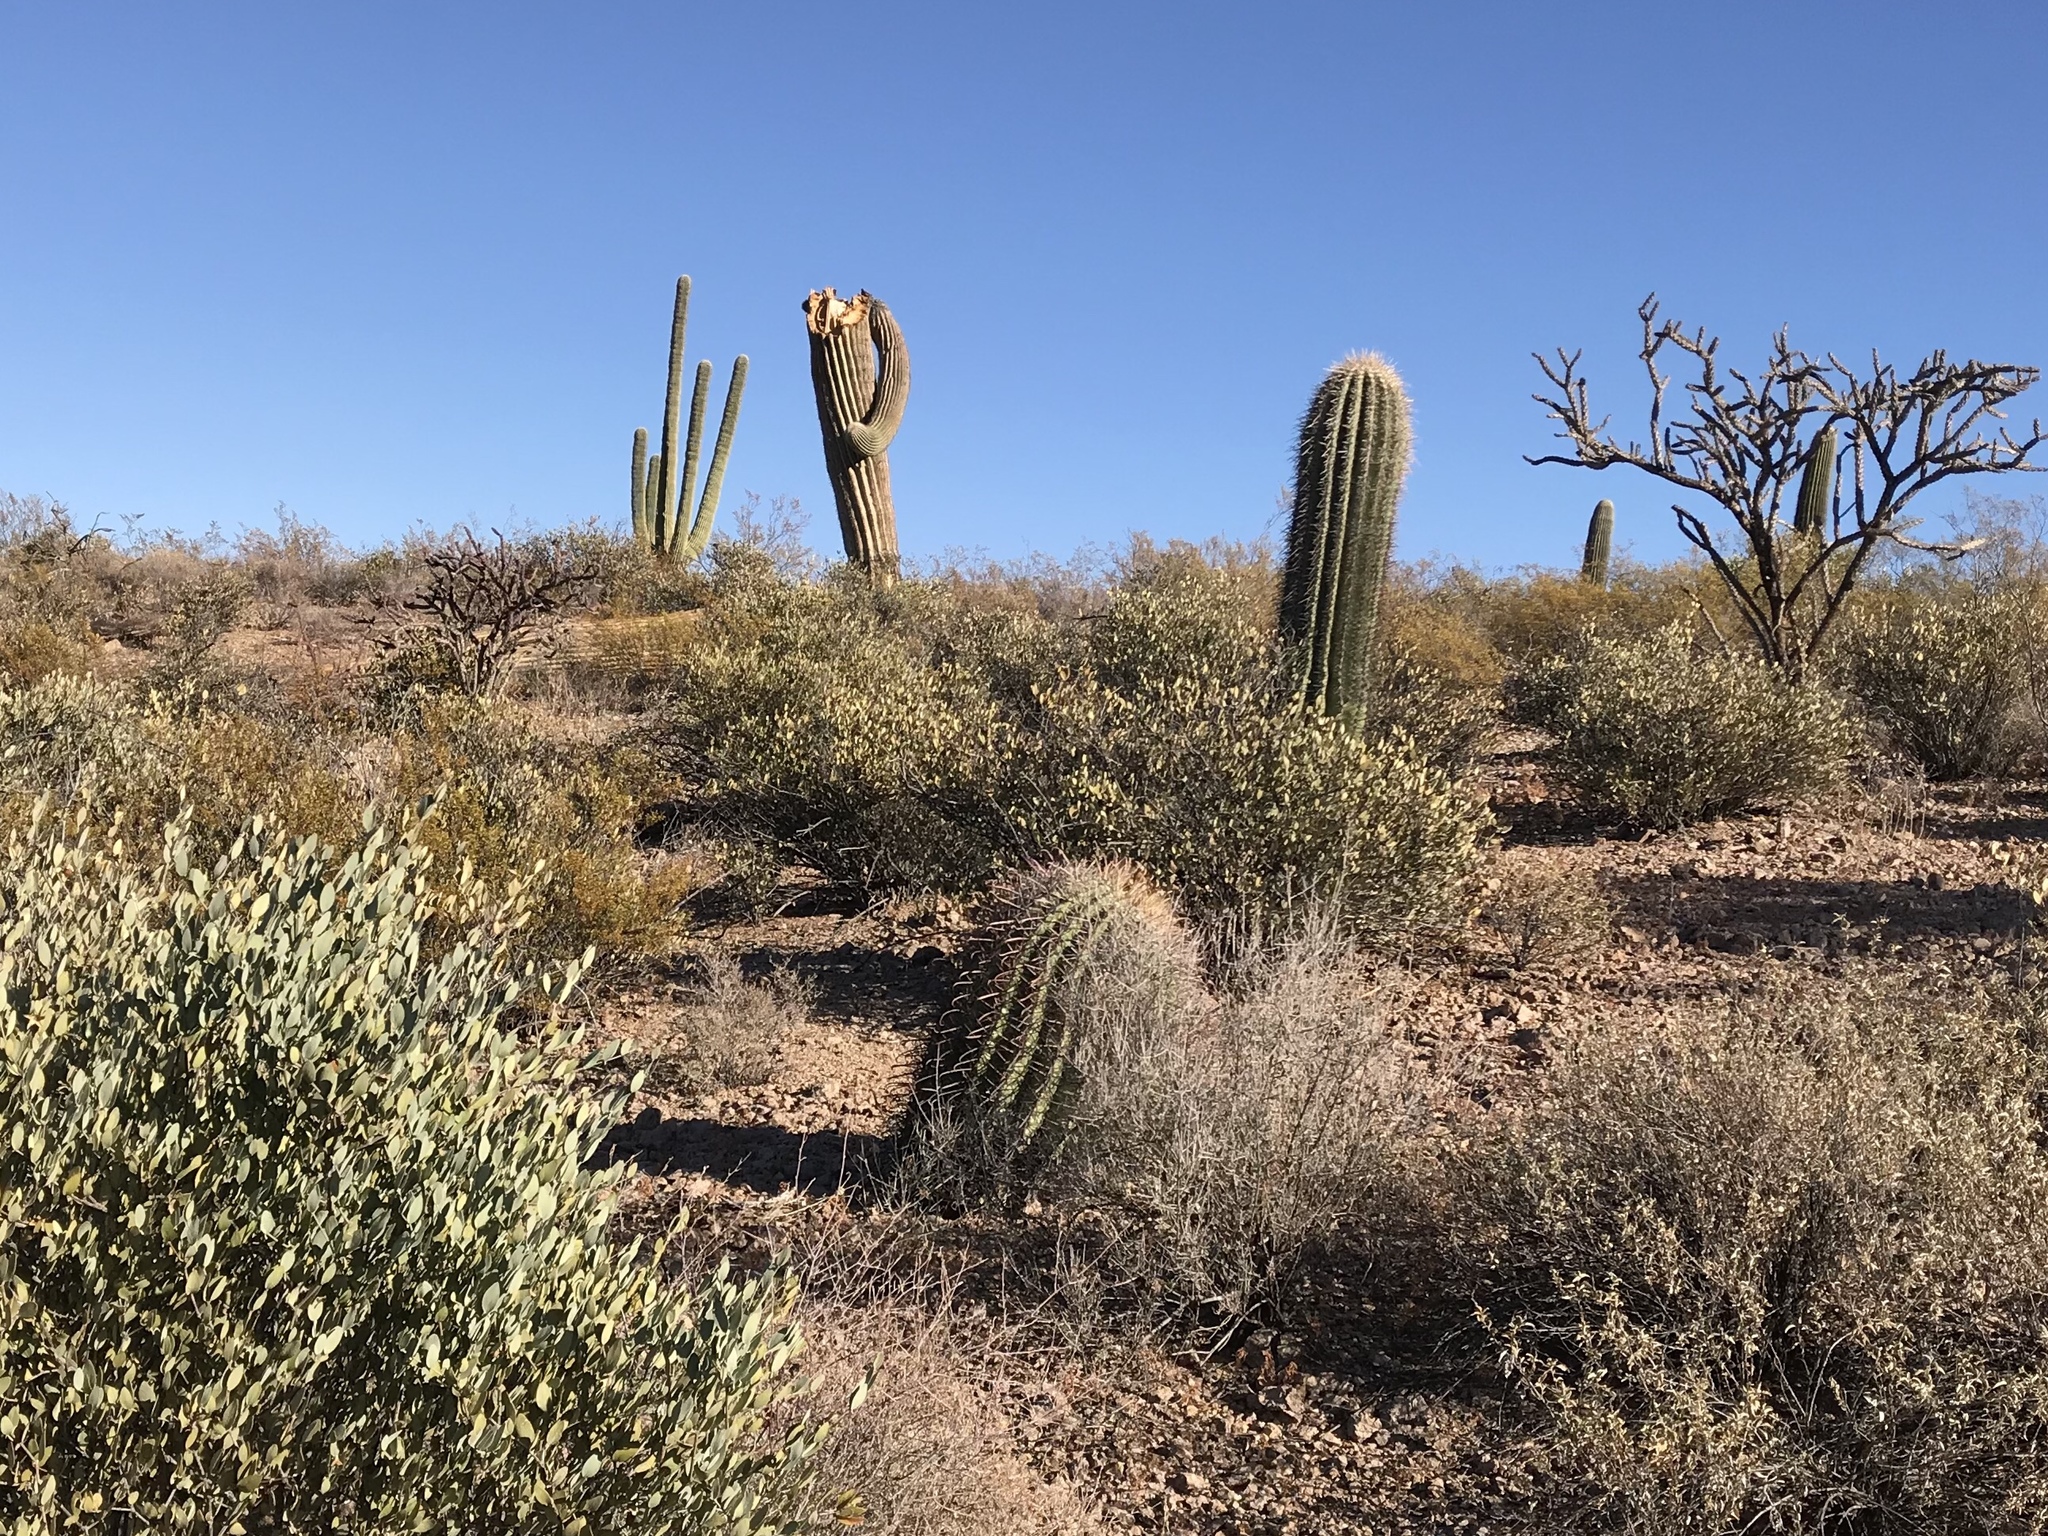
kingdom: Plantae
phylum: Tracheophyta
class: Magnoliopsida
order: Caryophyllales
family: Cactaceae
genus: Ferocactus
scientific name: Ferocactus wislizeni
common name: Candy barrel cactus
